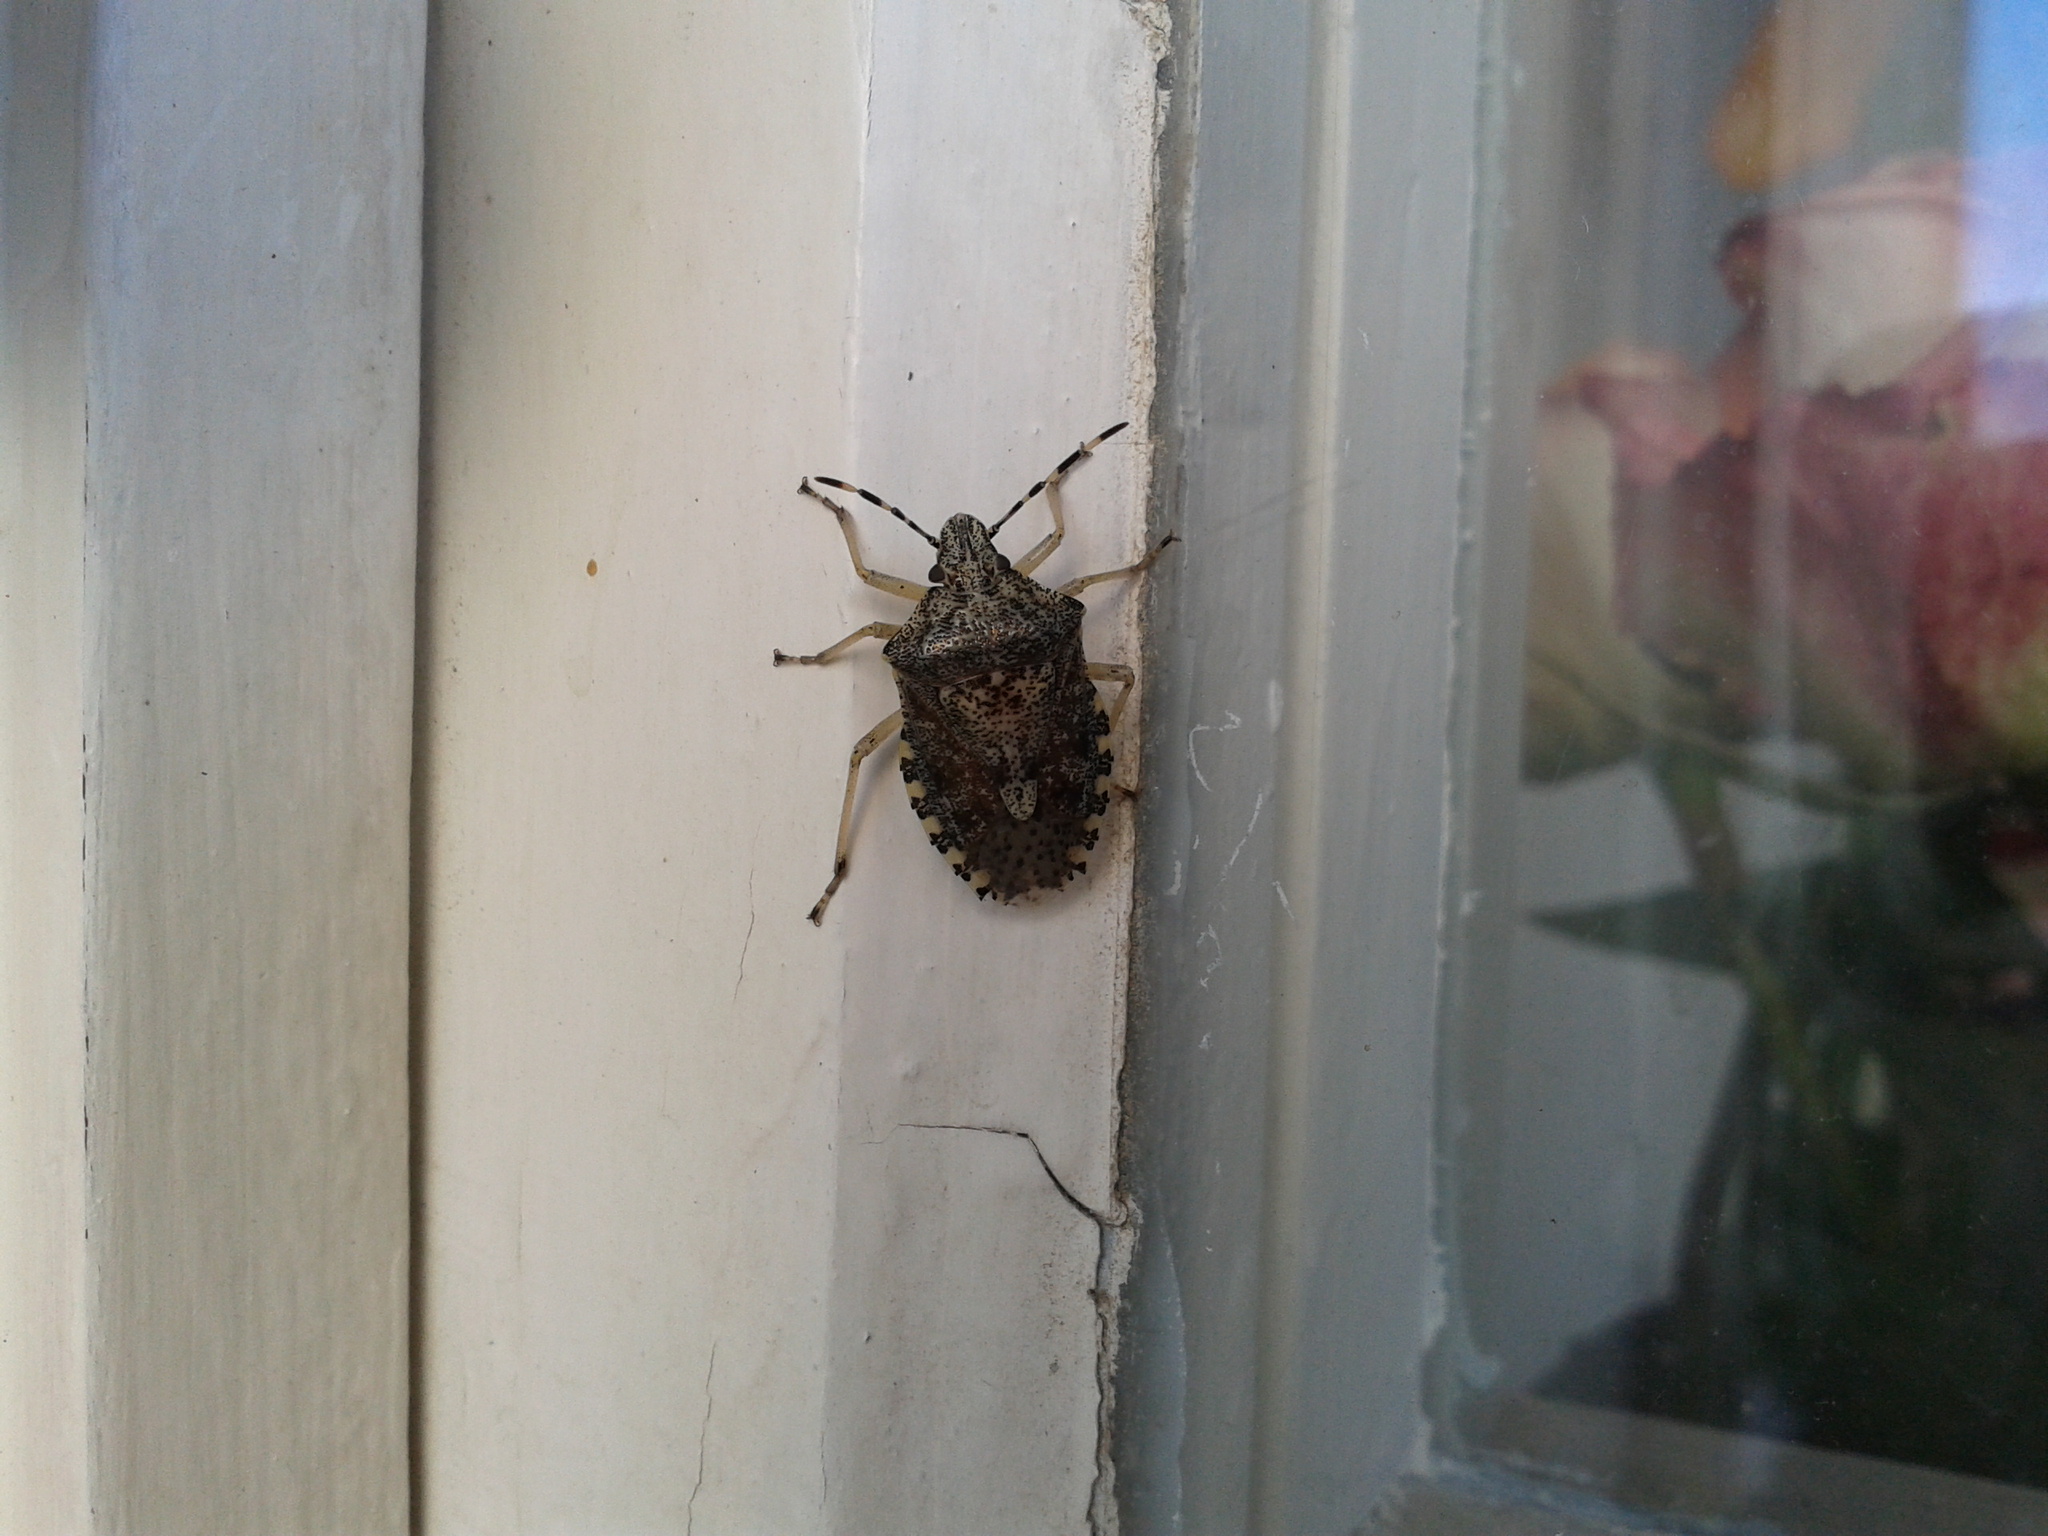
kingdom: Animalia
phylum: Arthropoda
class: Insecta
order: Hemiptera
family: Pentatomidae
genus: Rhaphigaster
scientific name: Rhaphigaster nebulosa
